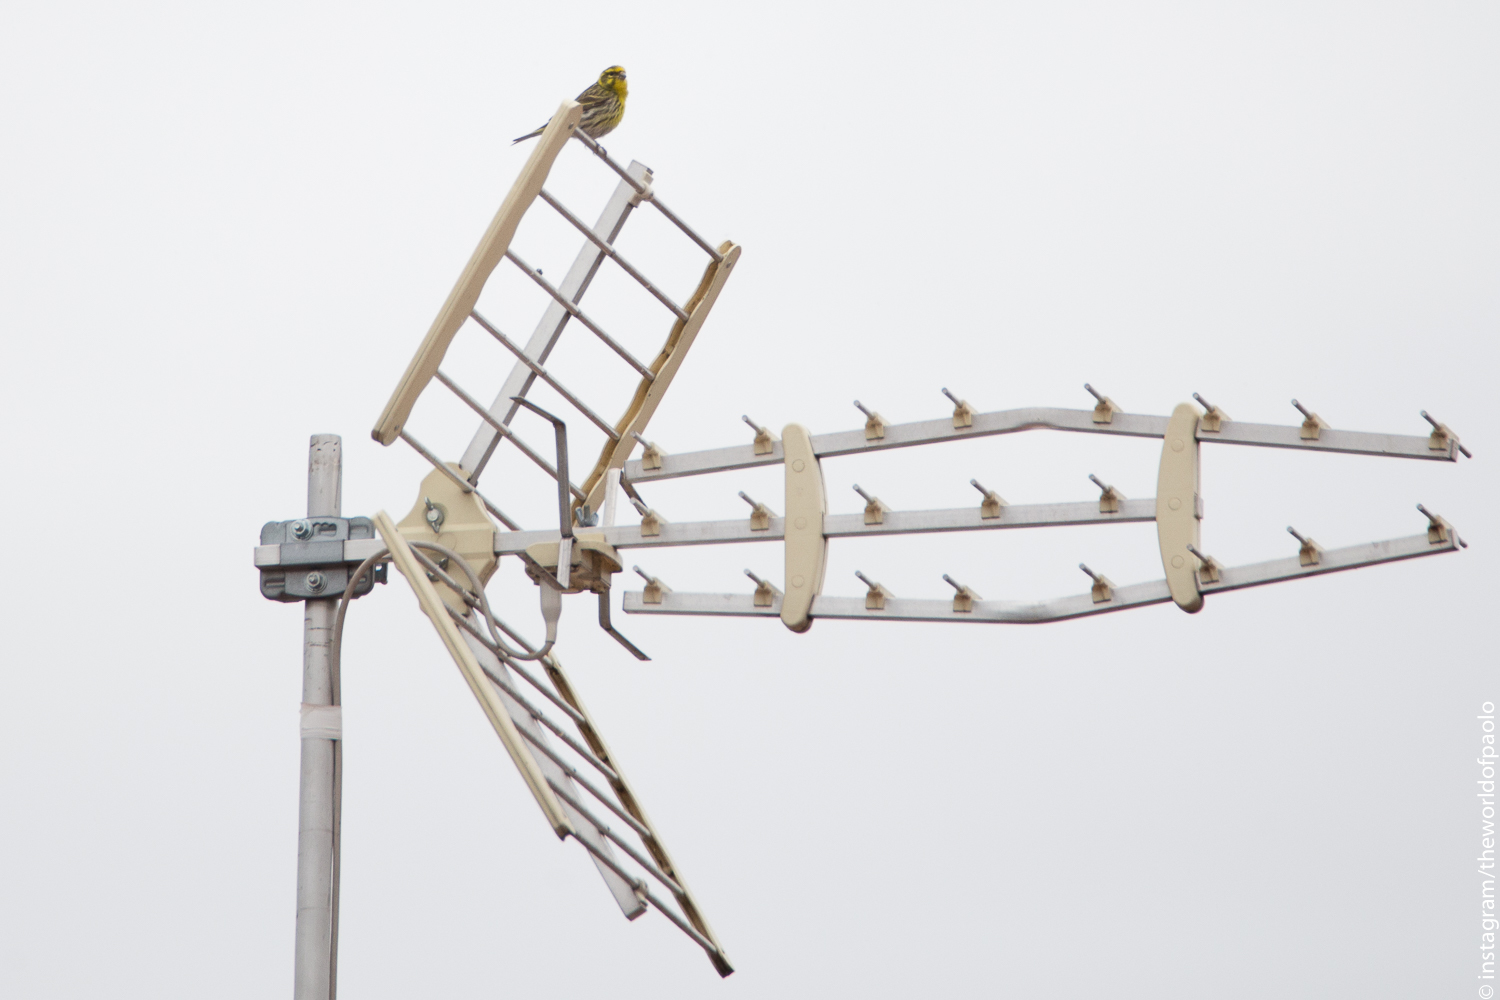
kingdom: Animalia
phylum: Chordata
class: Aves
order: Passeriformes
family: Fringillidae
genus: Serinus
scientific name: Serinus serinus
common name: European serin
